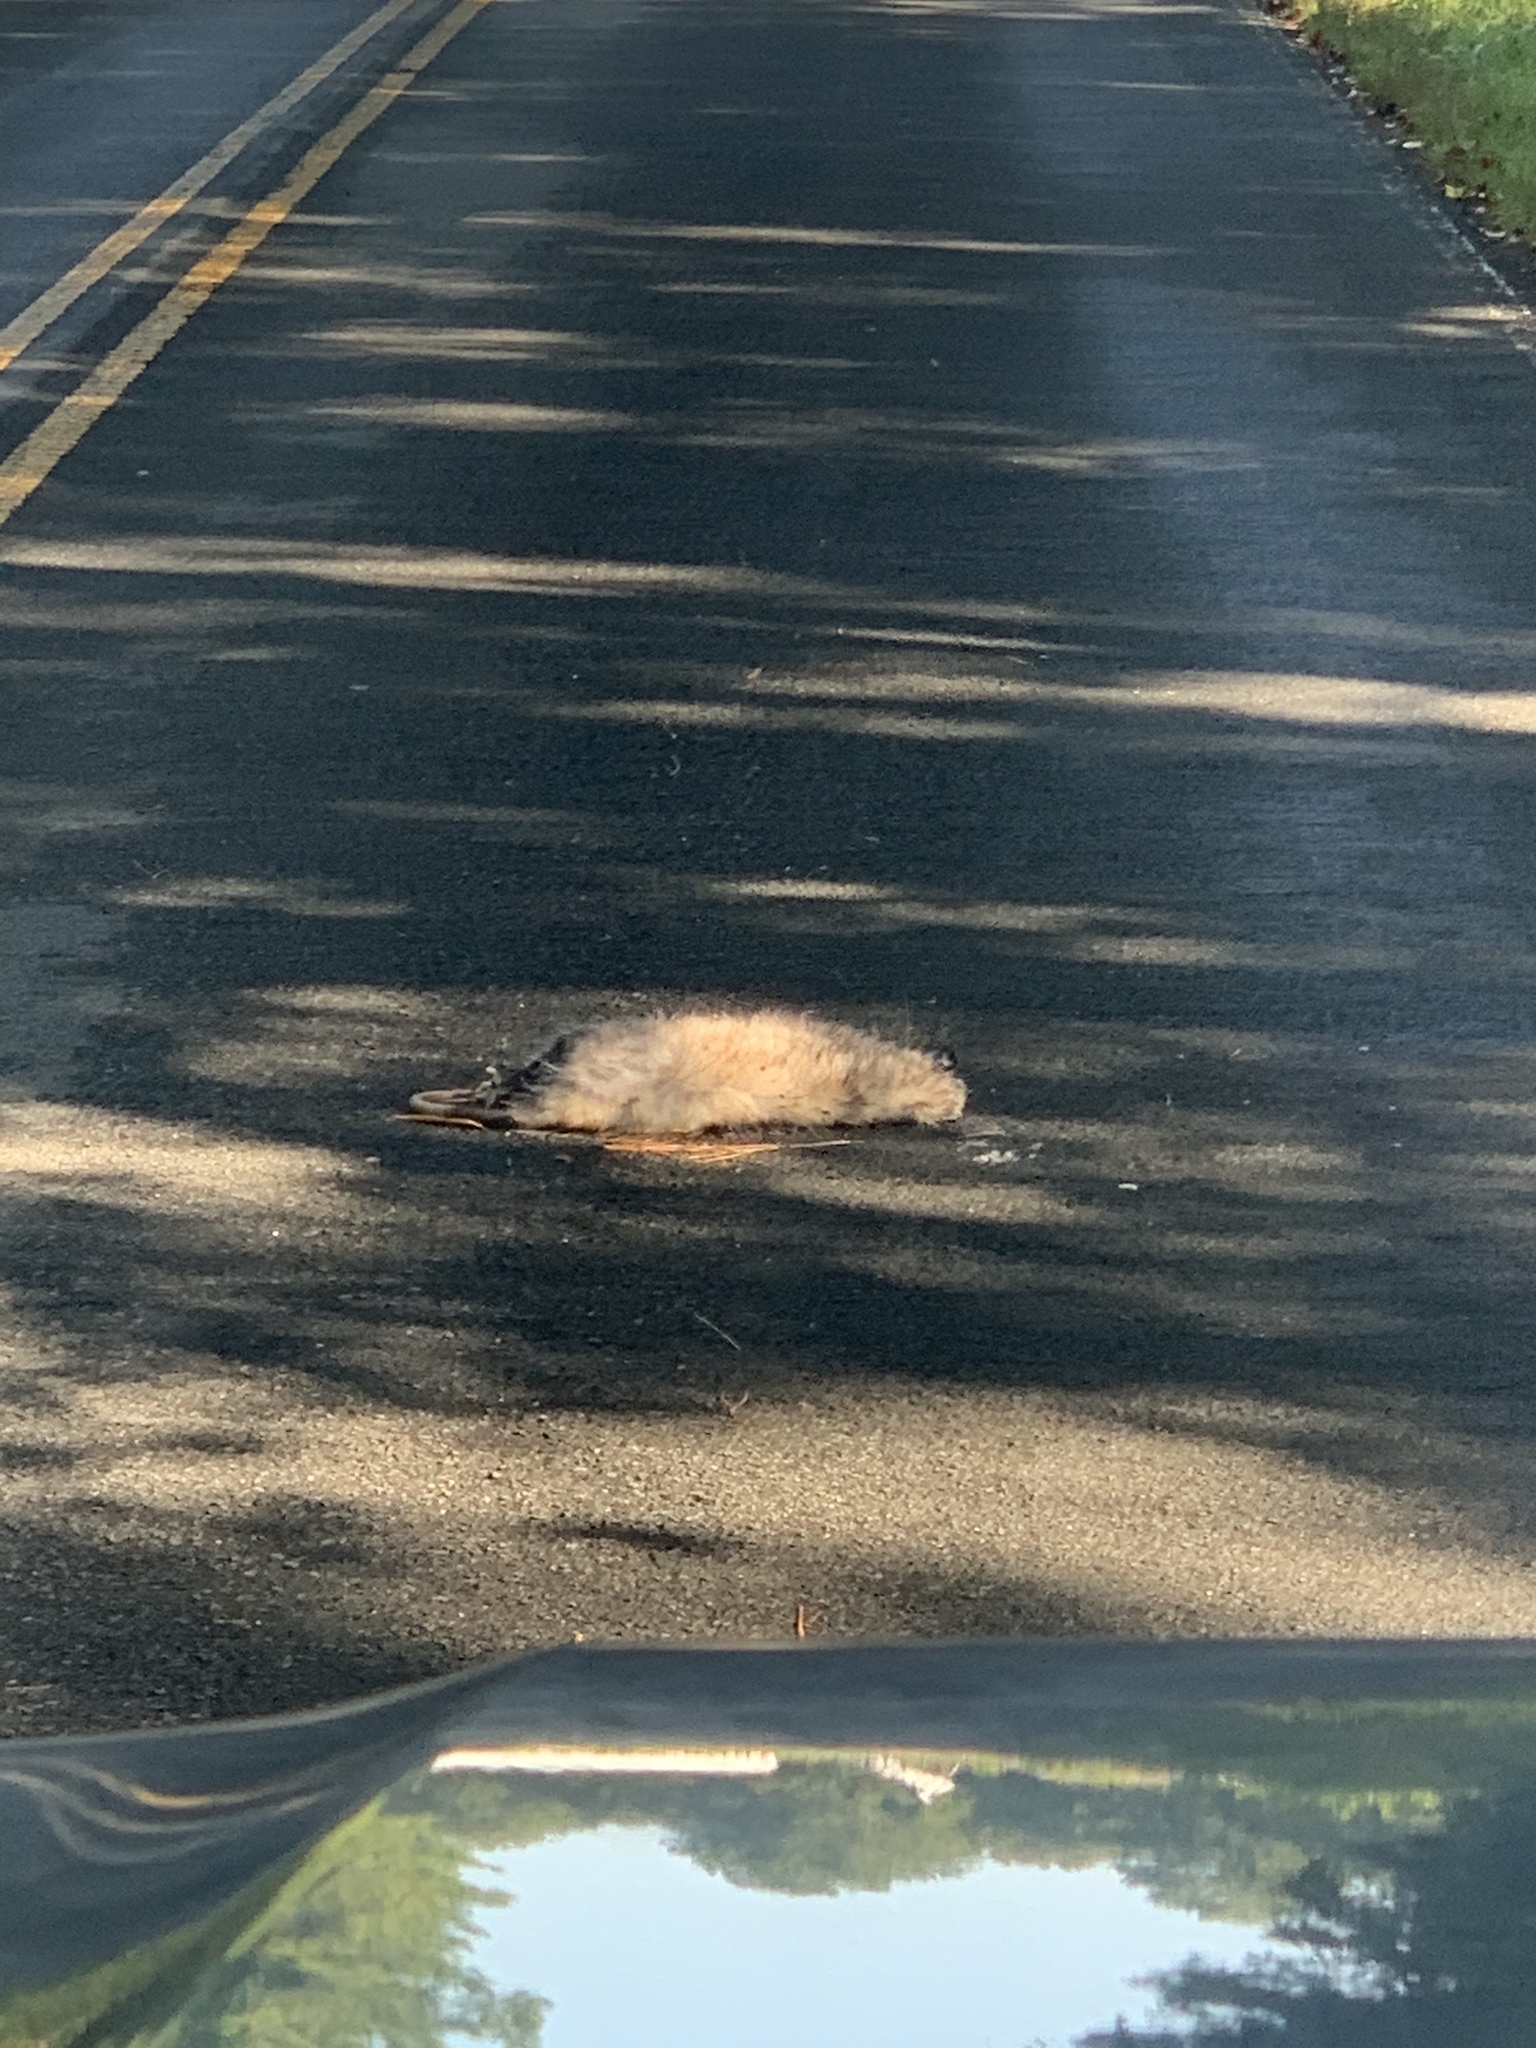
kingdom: Animalia
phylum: Chordata
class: Mammalia
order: Didelphimorphia
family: Didelphidae
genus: Didelphis
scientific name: Didelphis virginiana
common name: Virginia opossum
